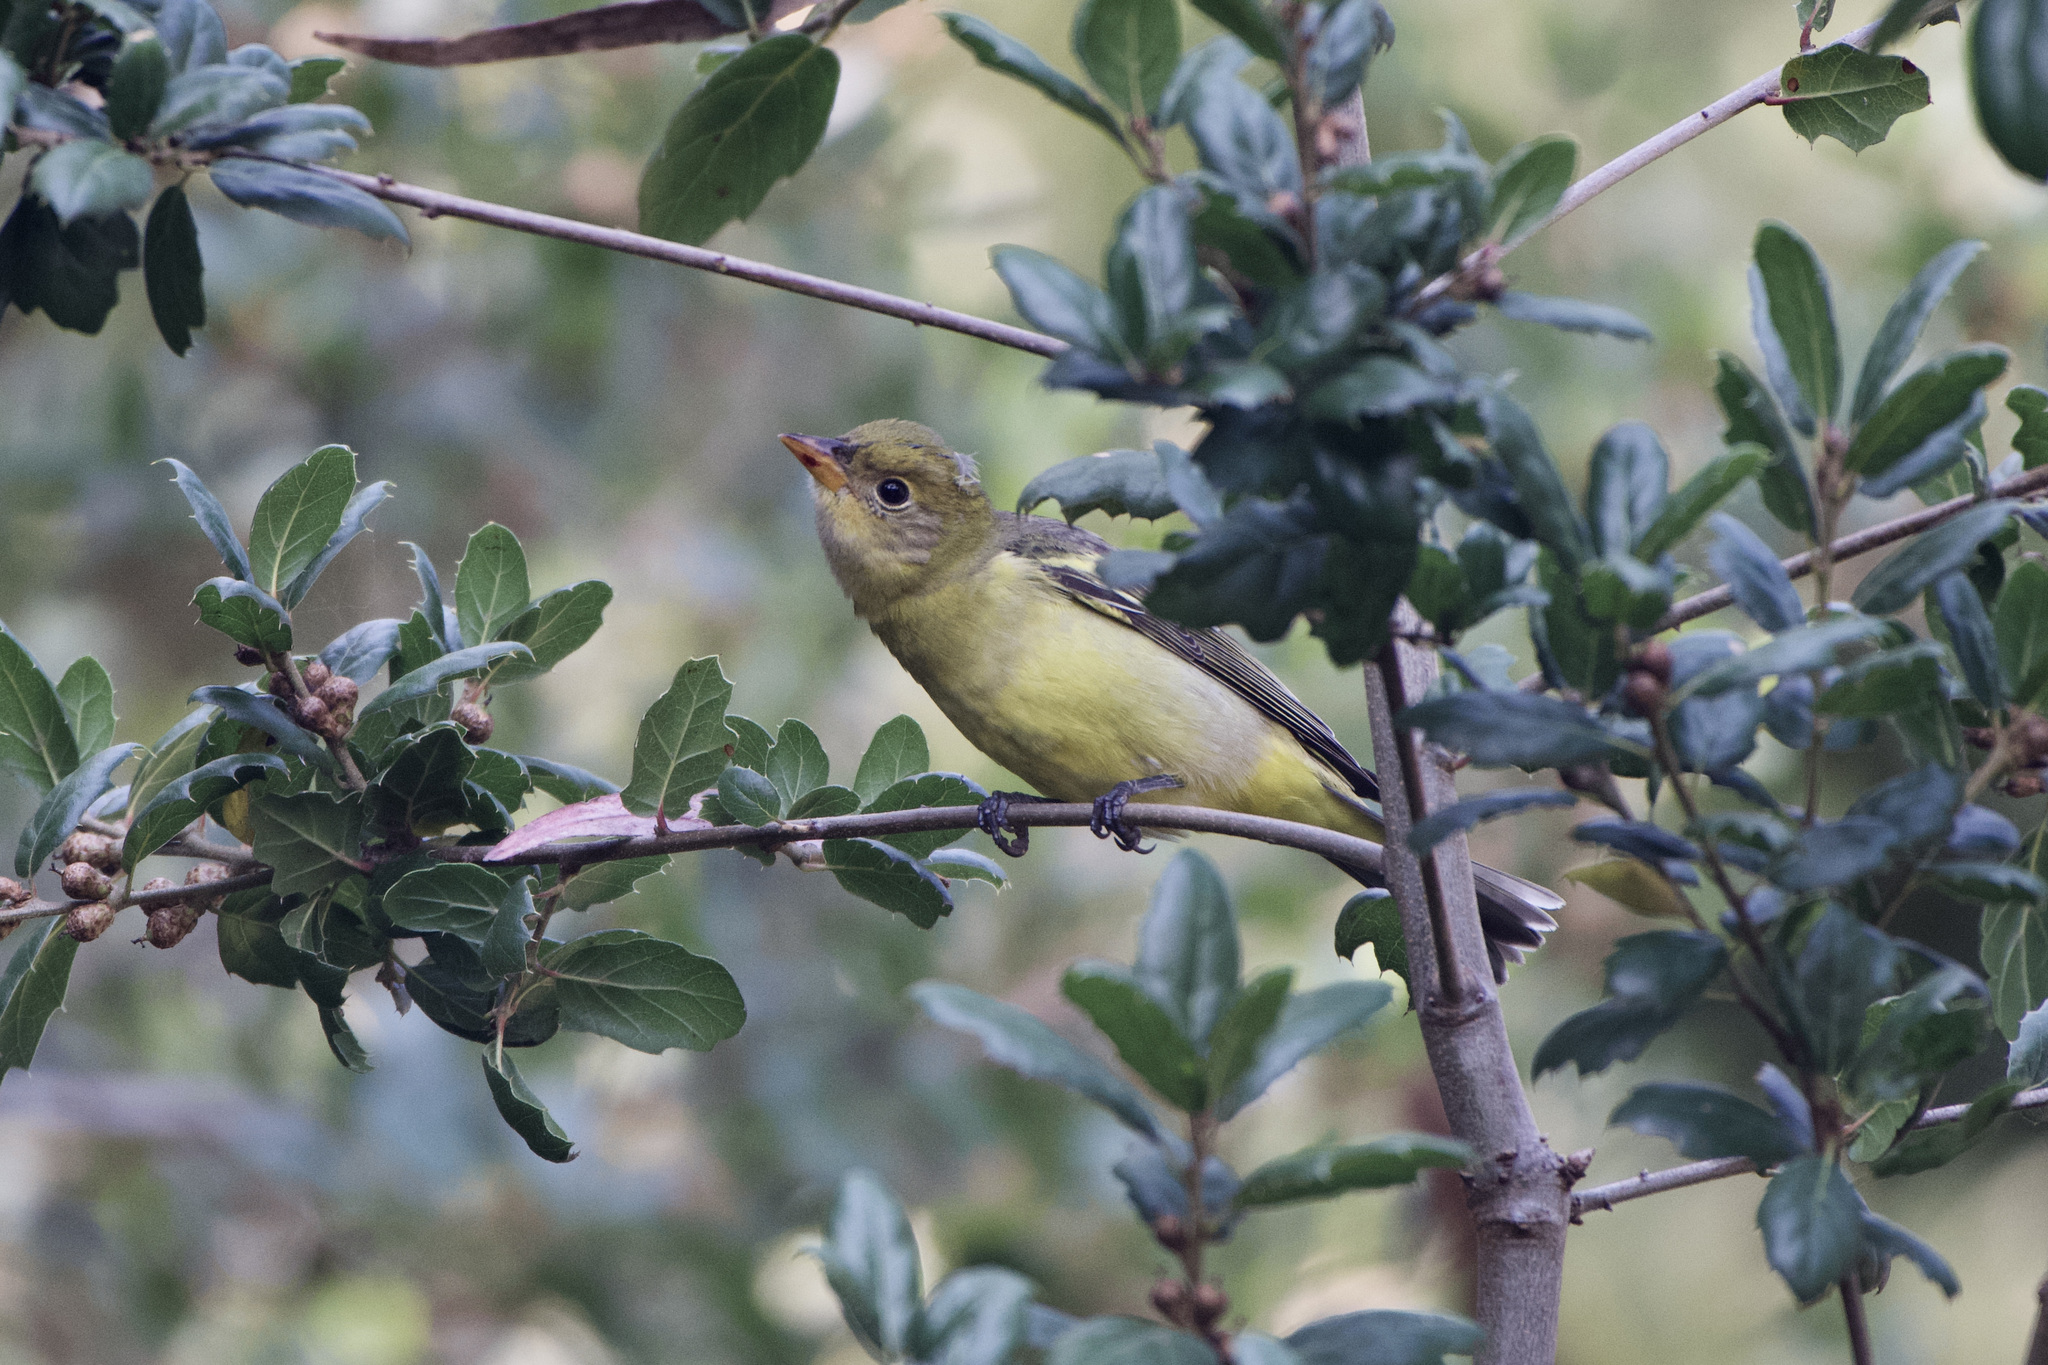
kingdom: Animalia
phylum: Chordata
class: Aves
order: Passeriformes
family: Cardinalidae
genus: Piranga
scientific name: Piranga ludoviciana
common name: Western tanager
